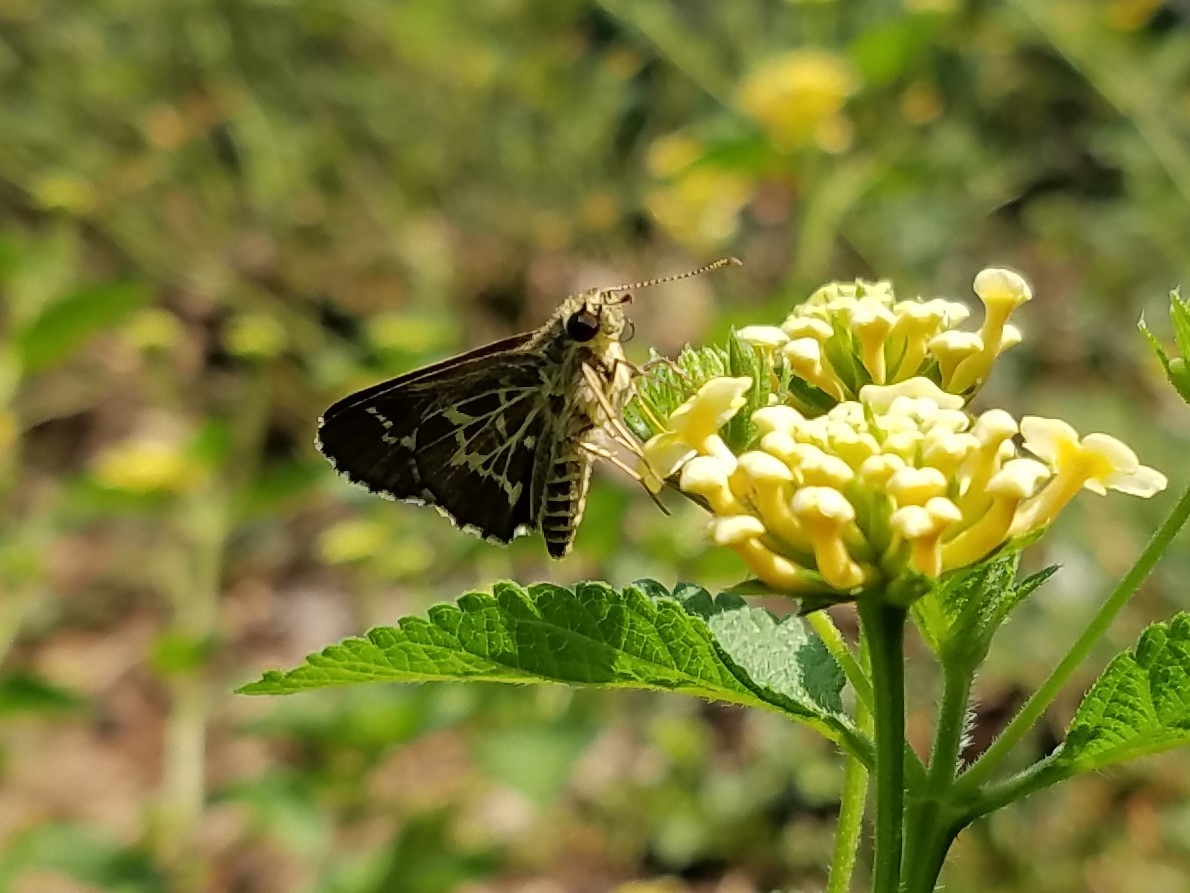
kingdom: Animalia
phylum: Arthropoda
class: Insecta
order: Lepidoptera
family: Hesperiidae
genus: Mastor
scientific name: Mastor aesculapius
